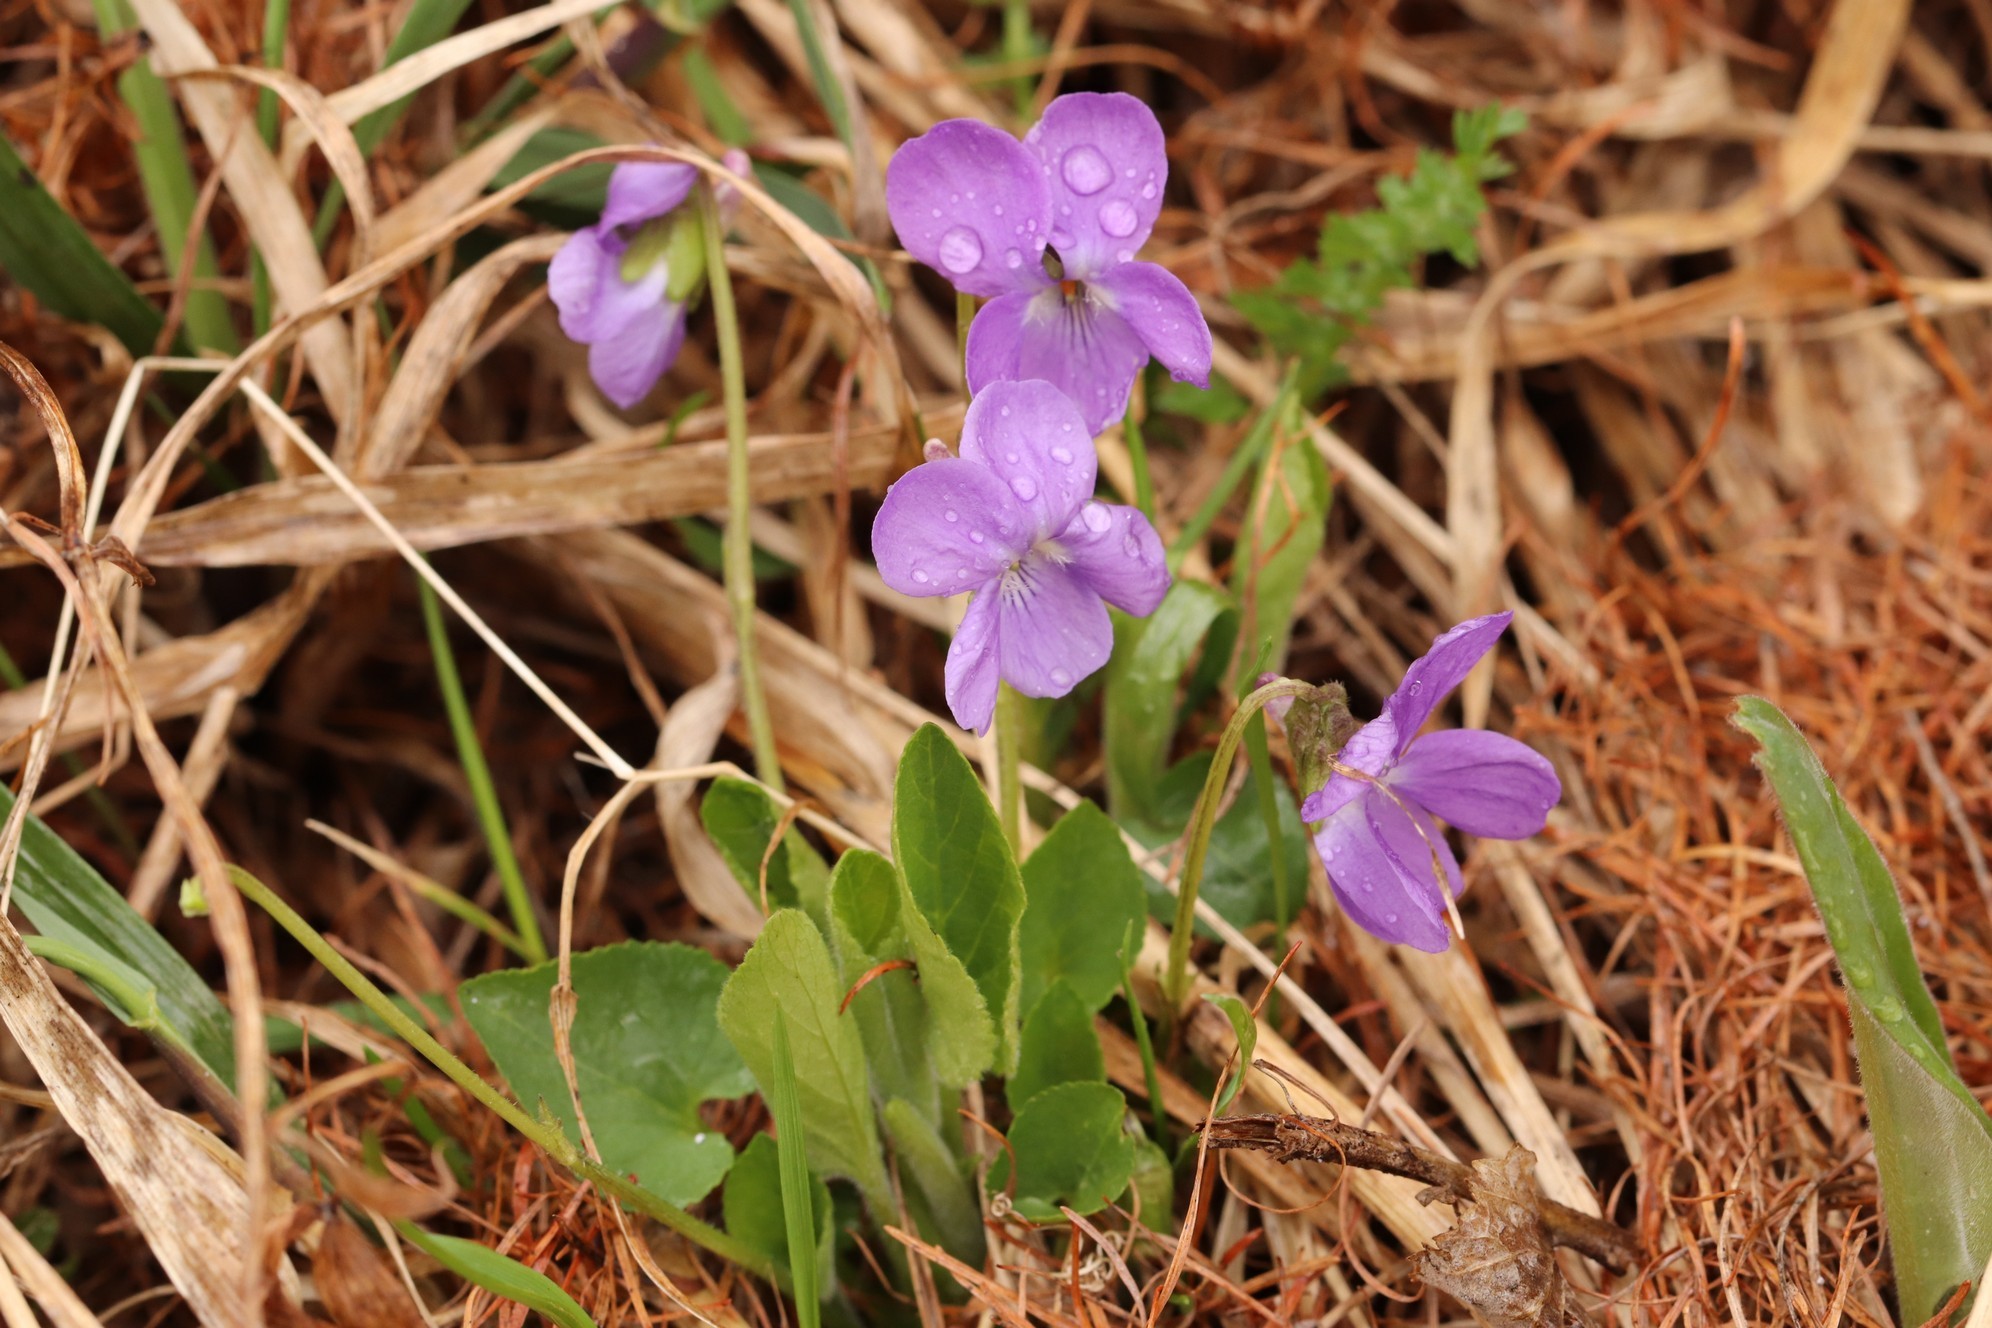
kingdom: Plantae
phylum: Tracheophyta
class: Magnoliopsida
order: Malpighiales
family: Violaceae
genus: Viola
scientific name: Viola hirta
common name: Hairy violet
